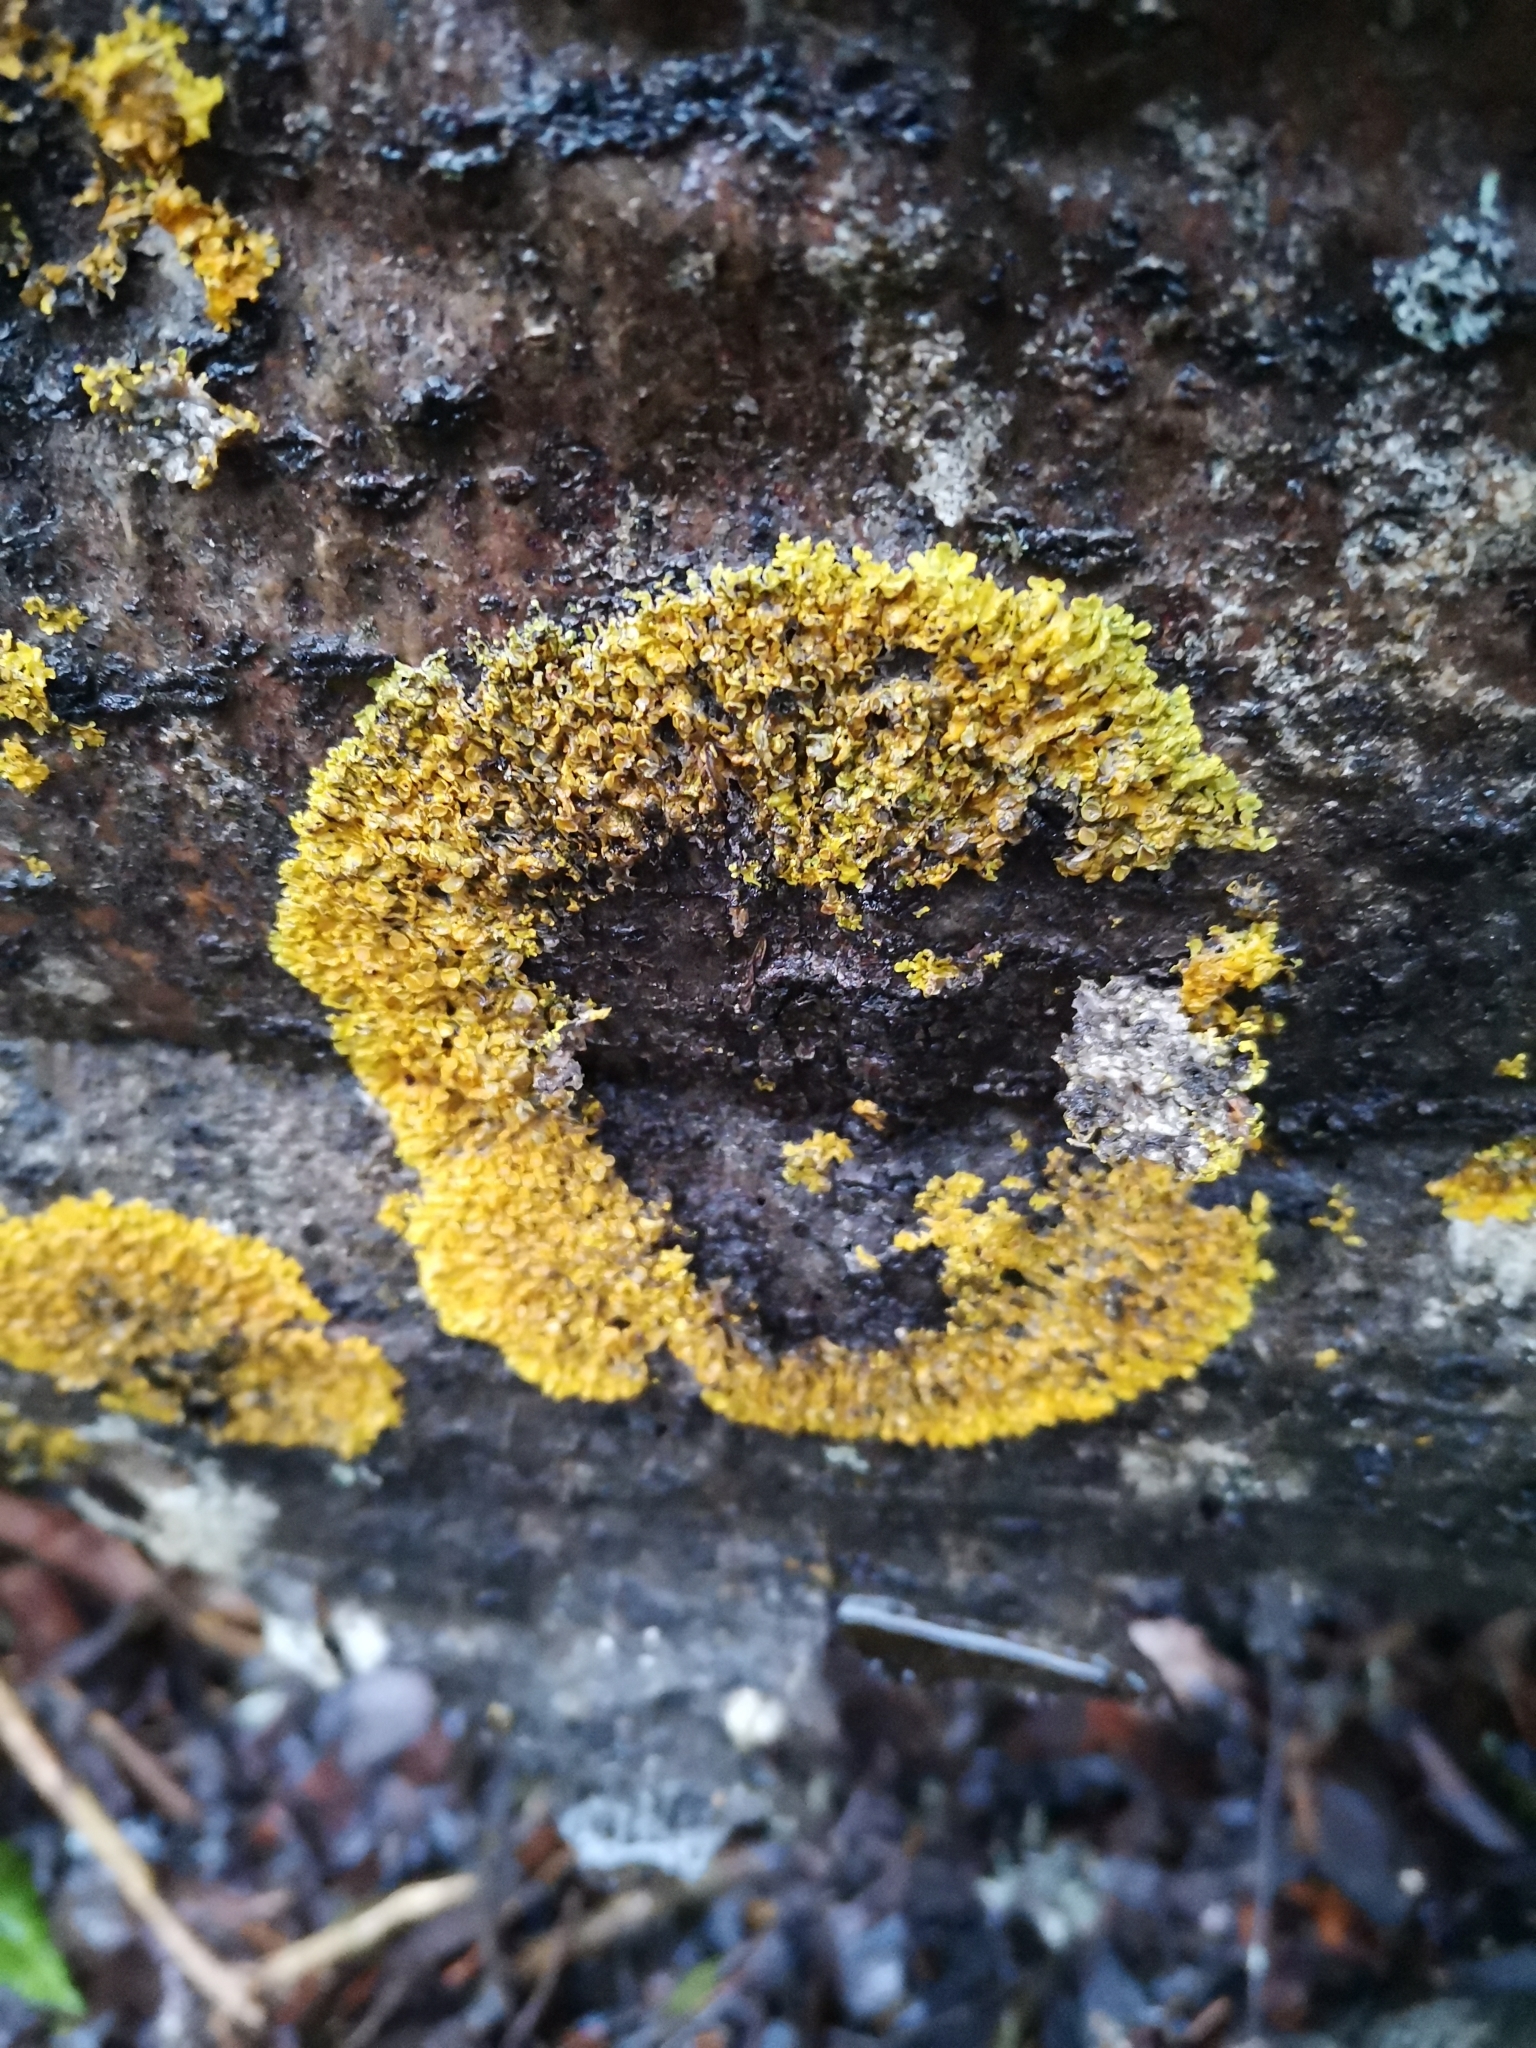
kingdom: Fungi
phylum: Ascomycota
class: Lecanoromycetes
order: Teloschistales
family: Teloschistaceae
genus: Xanthoria
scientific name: Xanthoria parietina
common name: Common orange lichen
